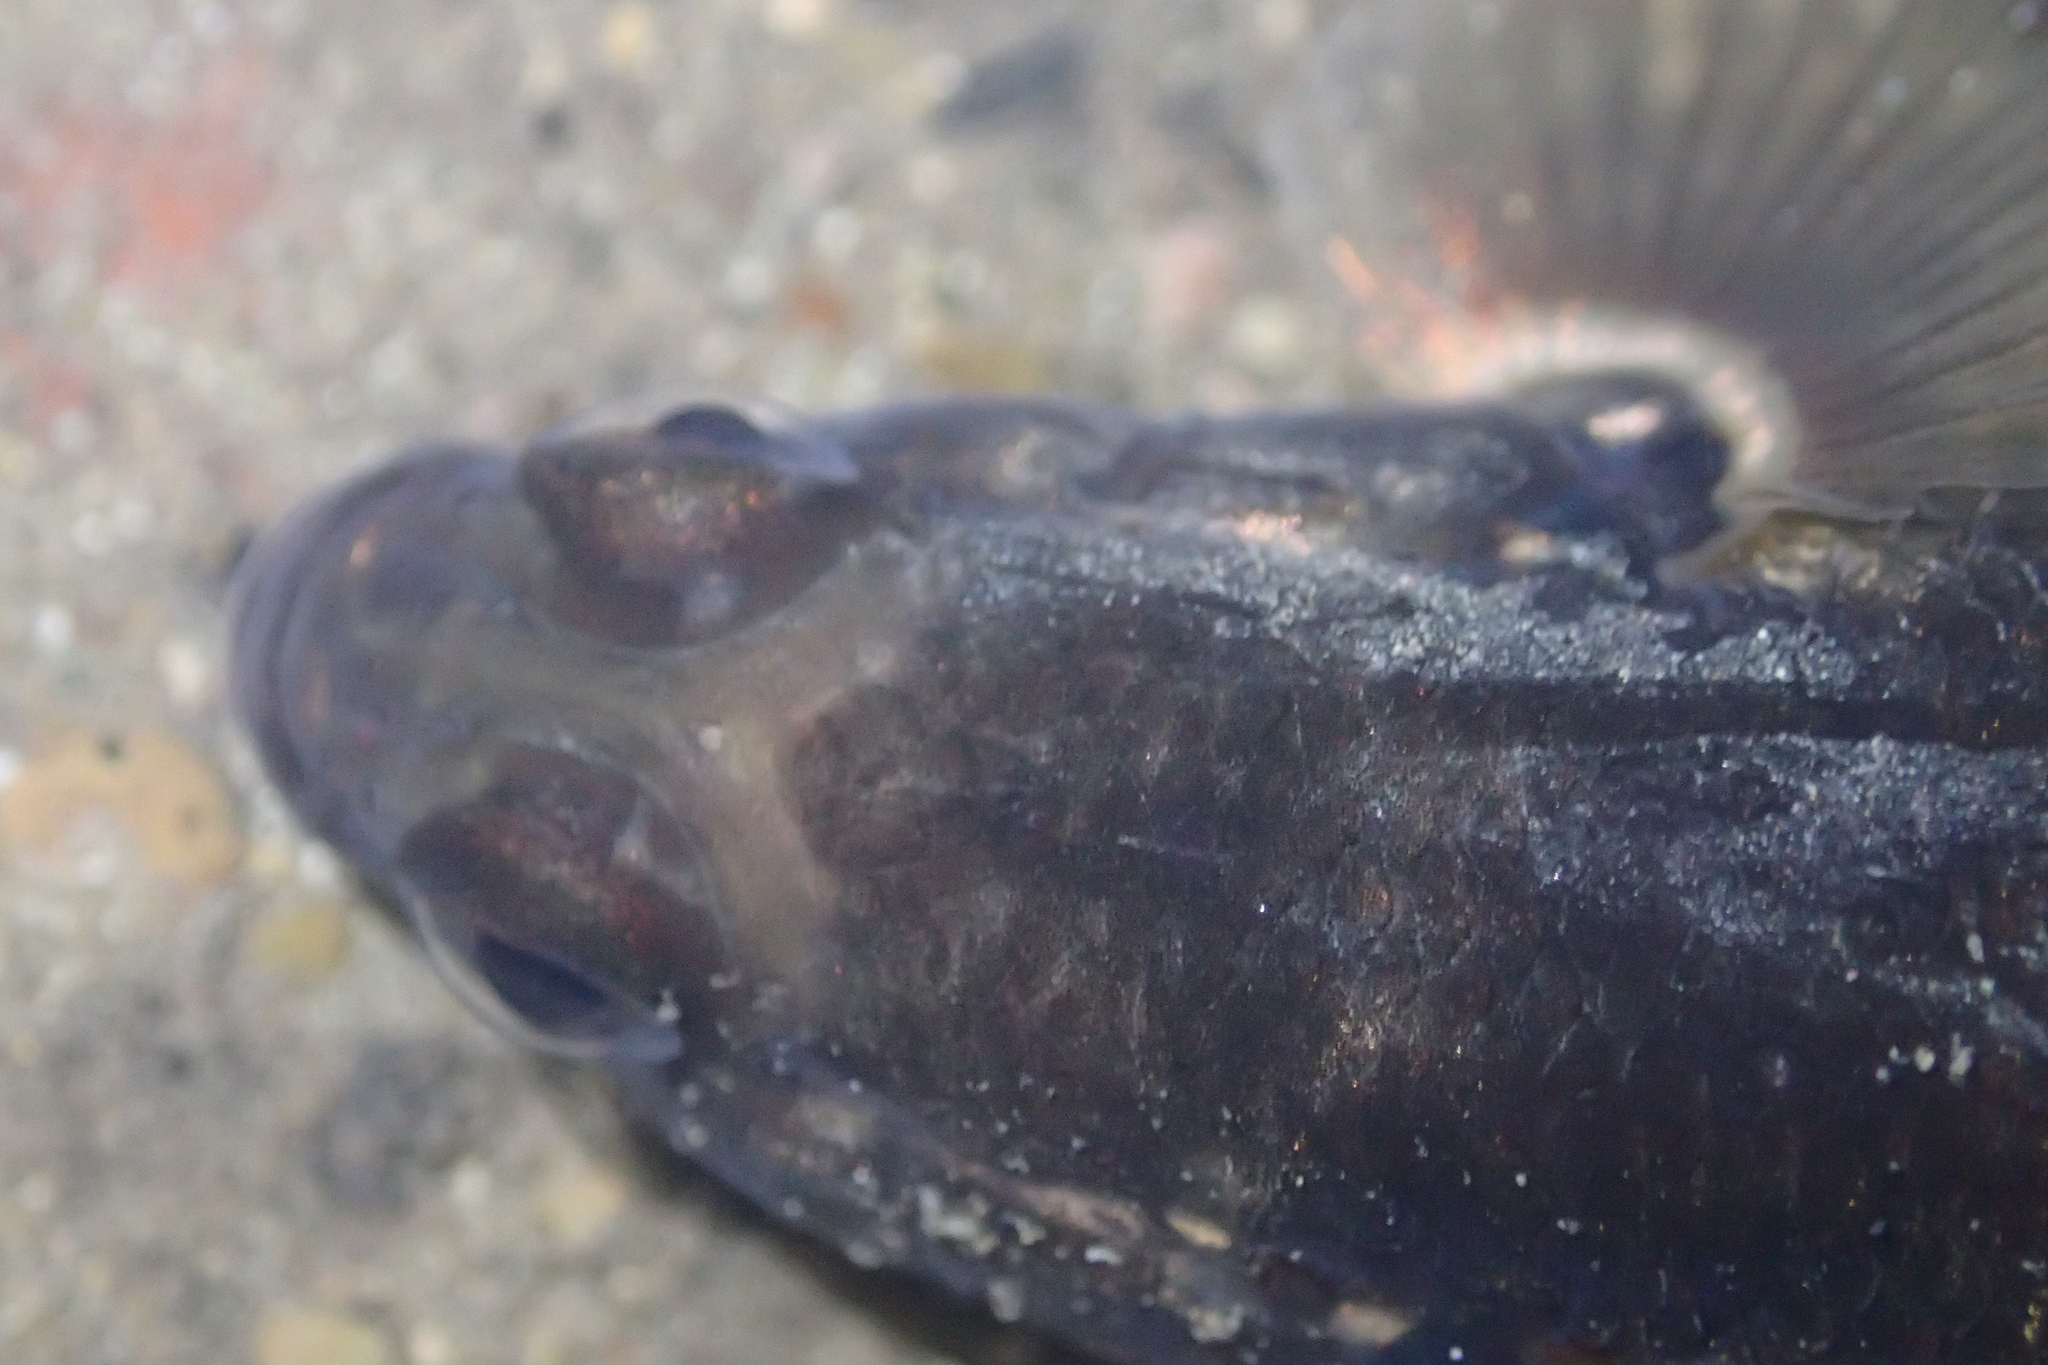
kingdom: Animalia
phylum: Chordata
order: Perciformes
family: Eleotridae
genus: Gobiomorphus
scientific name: Gobiomorphus huttoni
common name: Redfin bully
